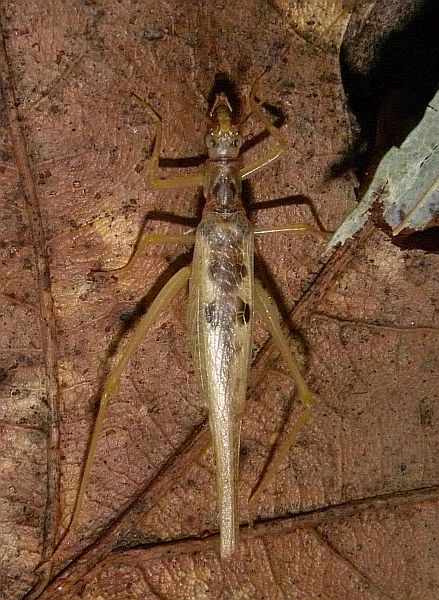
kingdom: Animalia
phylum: Arthropoda
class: Insecta
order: Orthoptera
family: Gryllidae
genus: Neoxabea
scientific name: Neoxabea bipunctata
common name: Two-spotted tree cricket
